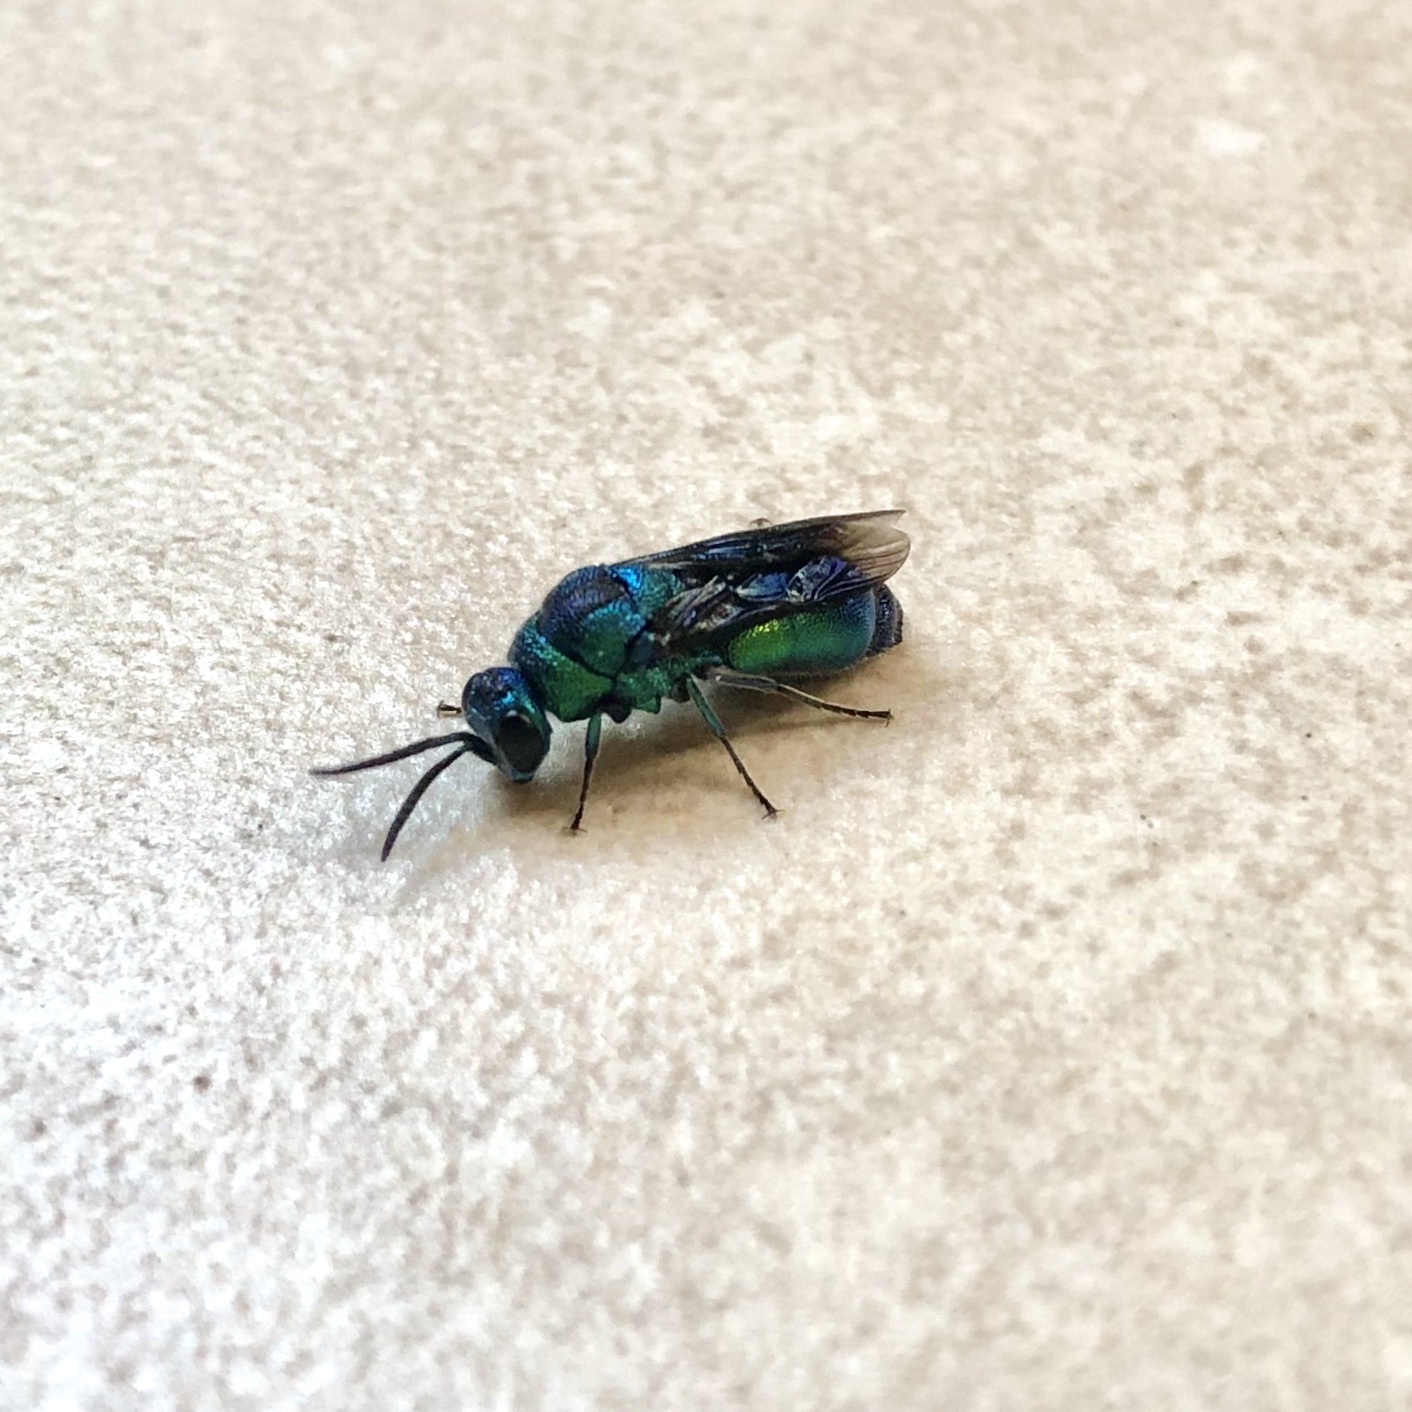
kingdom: Animalia
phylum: Arthropoda
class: Insecta
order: Hymenoptera
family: Chrysididae
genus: Chrysis
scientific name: Chrysis angolensis
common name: Cuckoo wasp
